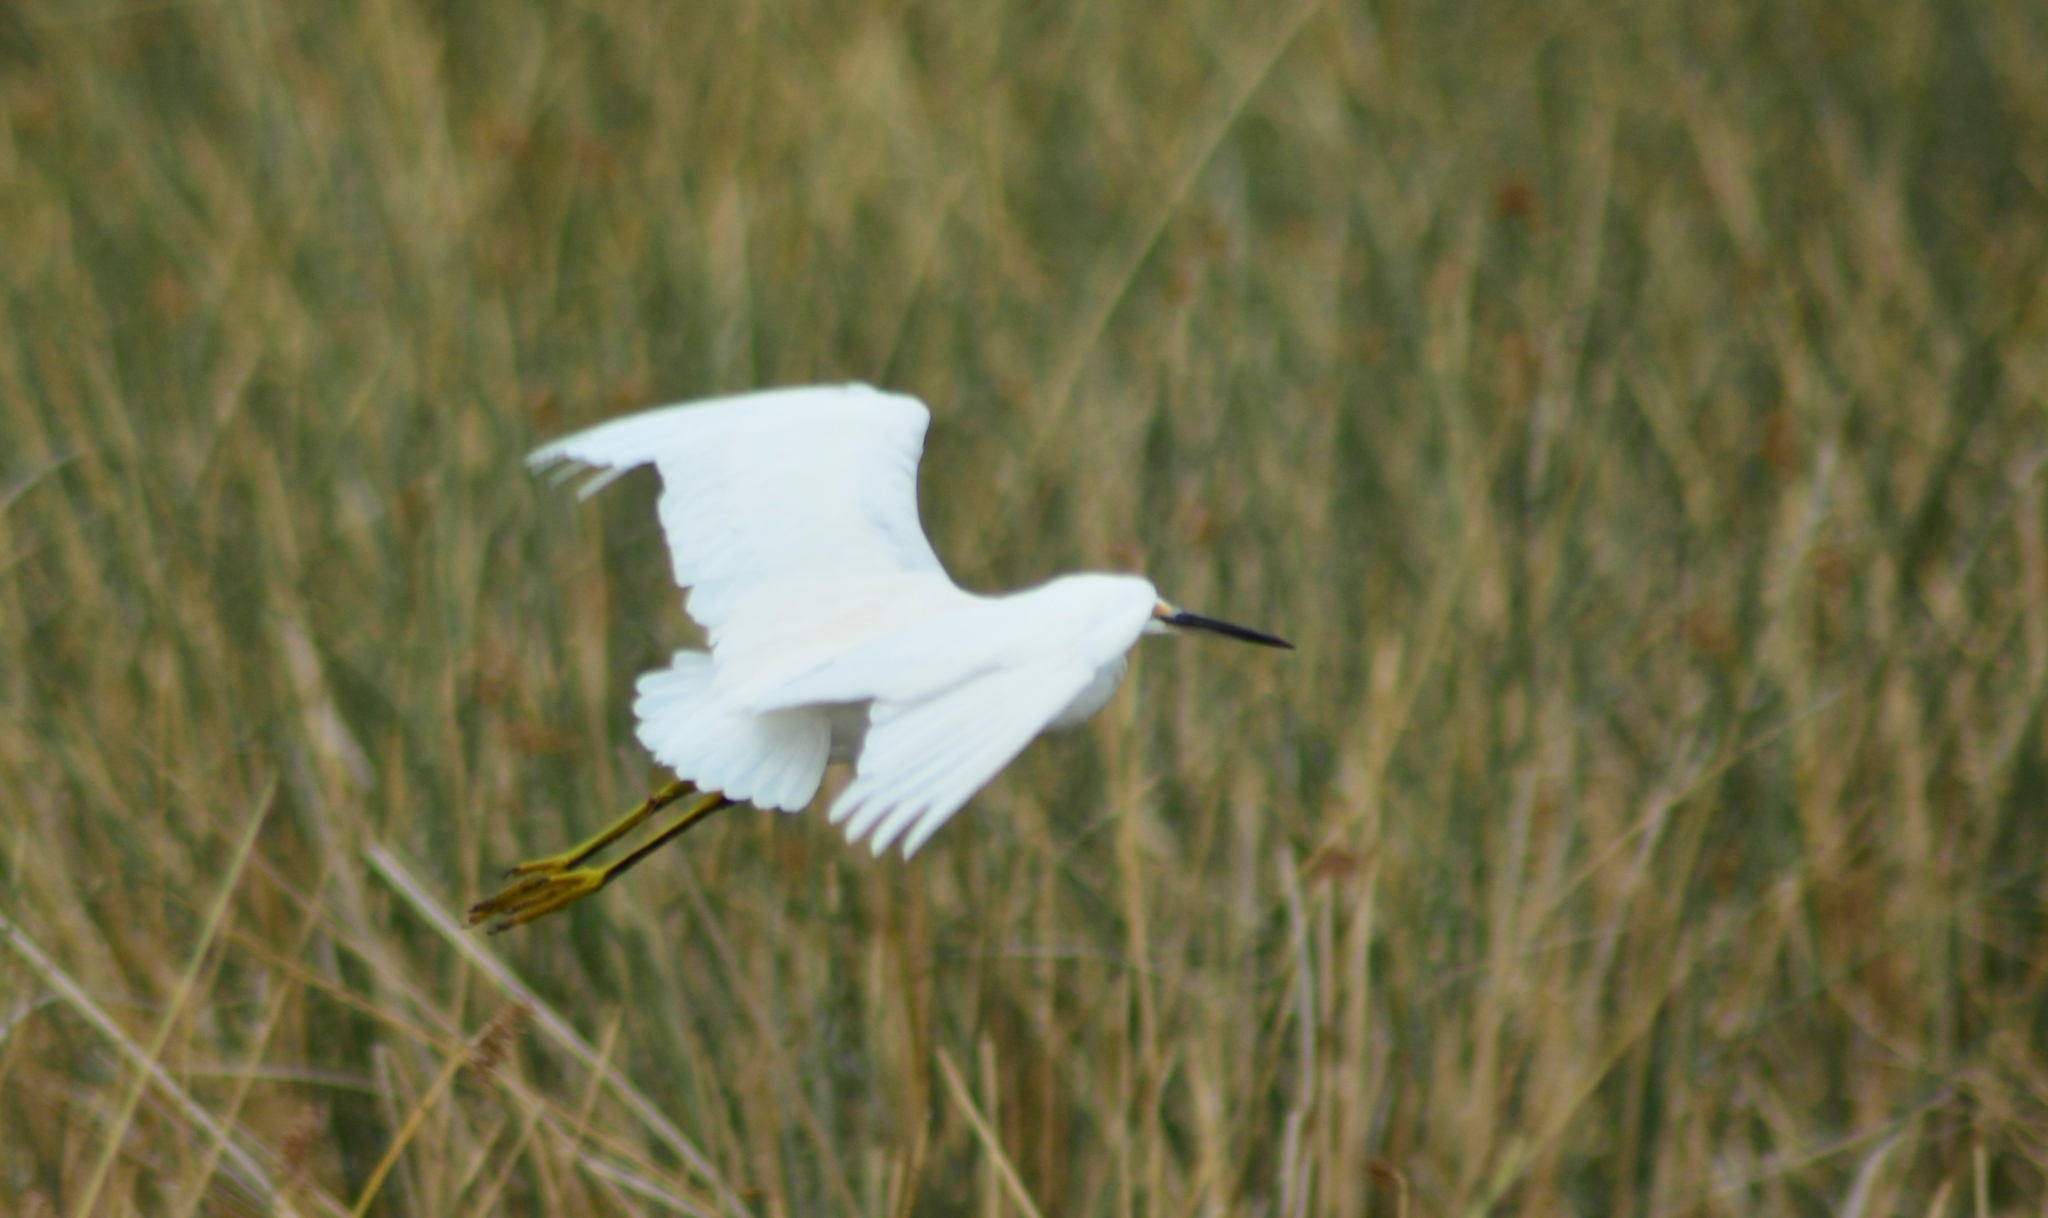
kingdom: Animalia
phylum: Chordata
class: Aves
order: Pelecaniformes
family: Ardeidae
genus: Egretta
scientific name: Egretta thula
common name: Snowy egret
